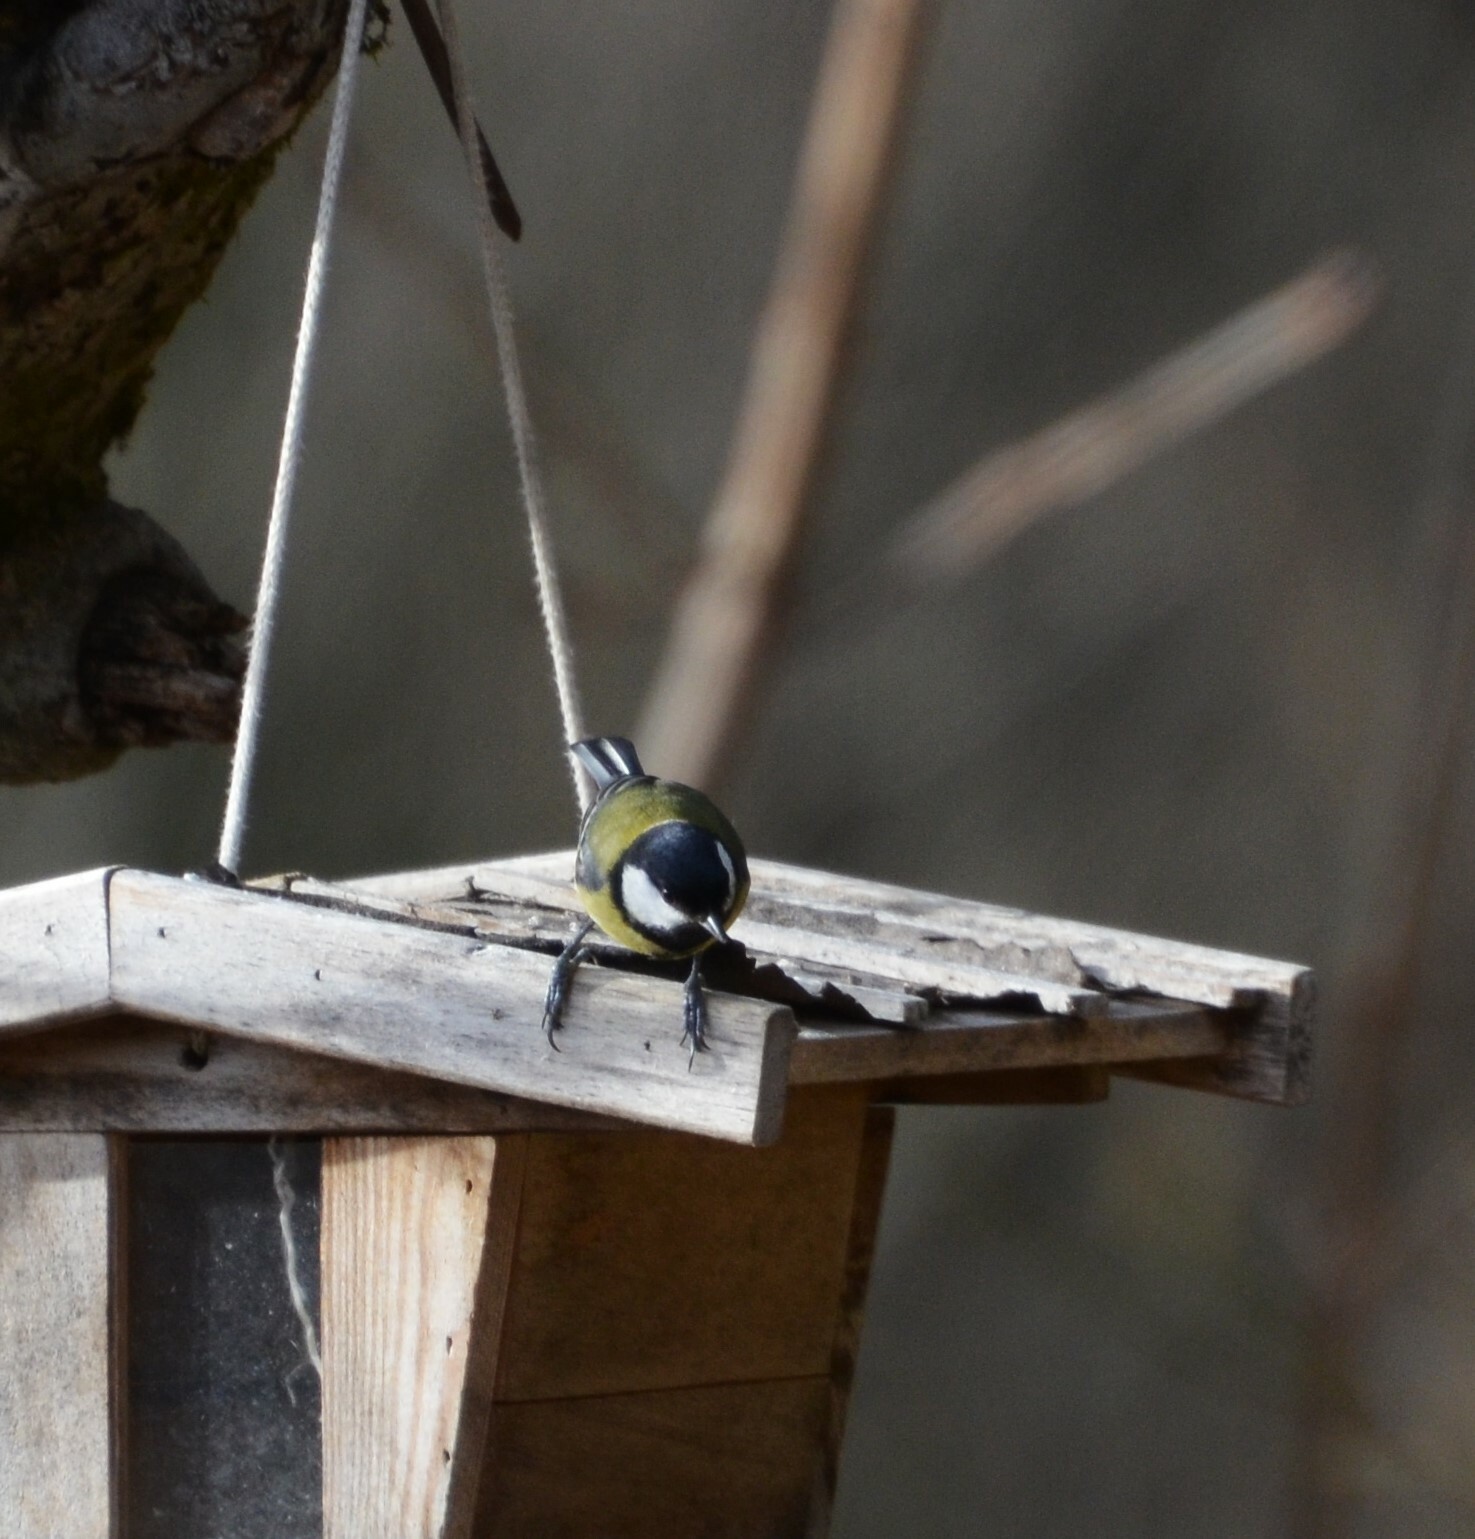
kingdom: Animalia
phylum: Chordata
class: Aves
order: Passeriformes
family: Paridae
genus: Parus
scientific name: Parus major
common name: Great tit
